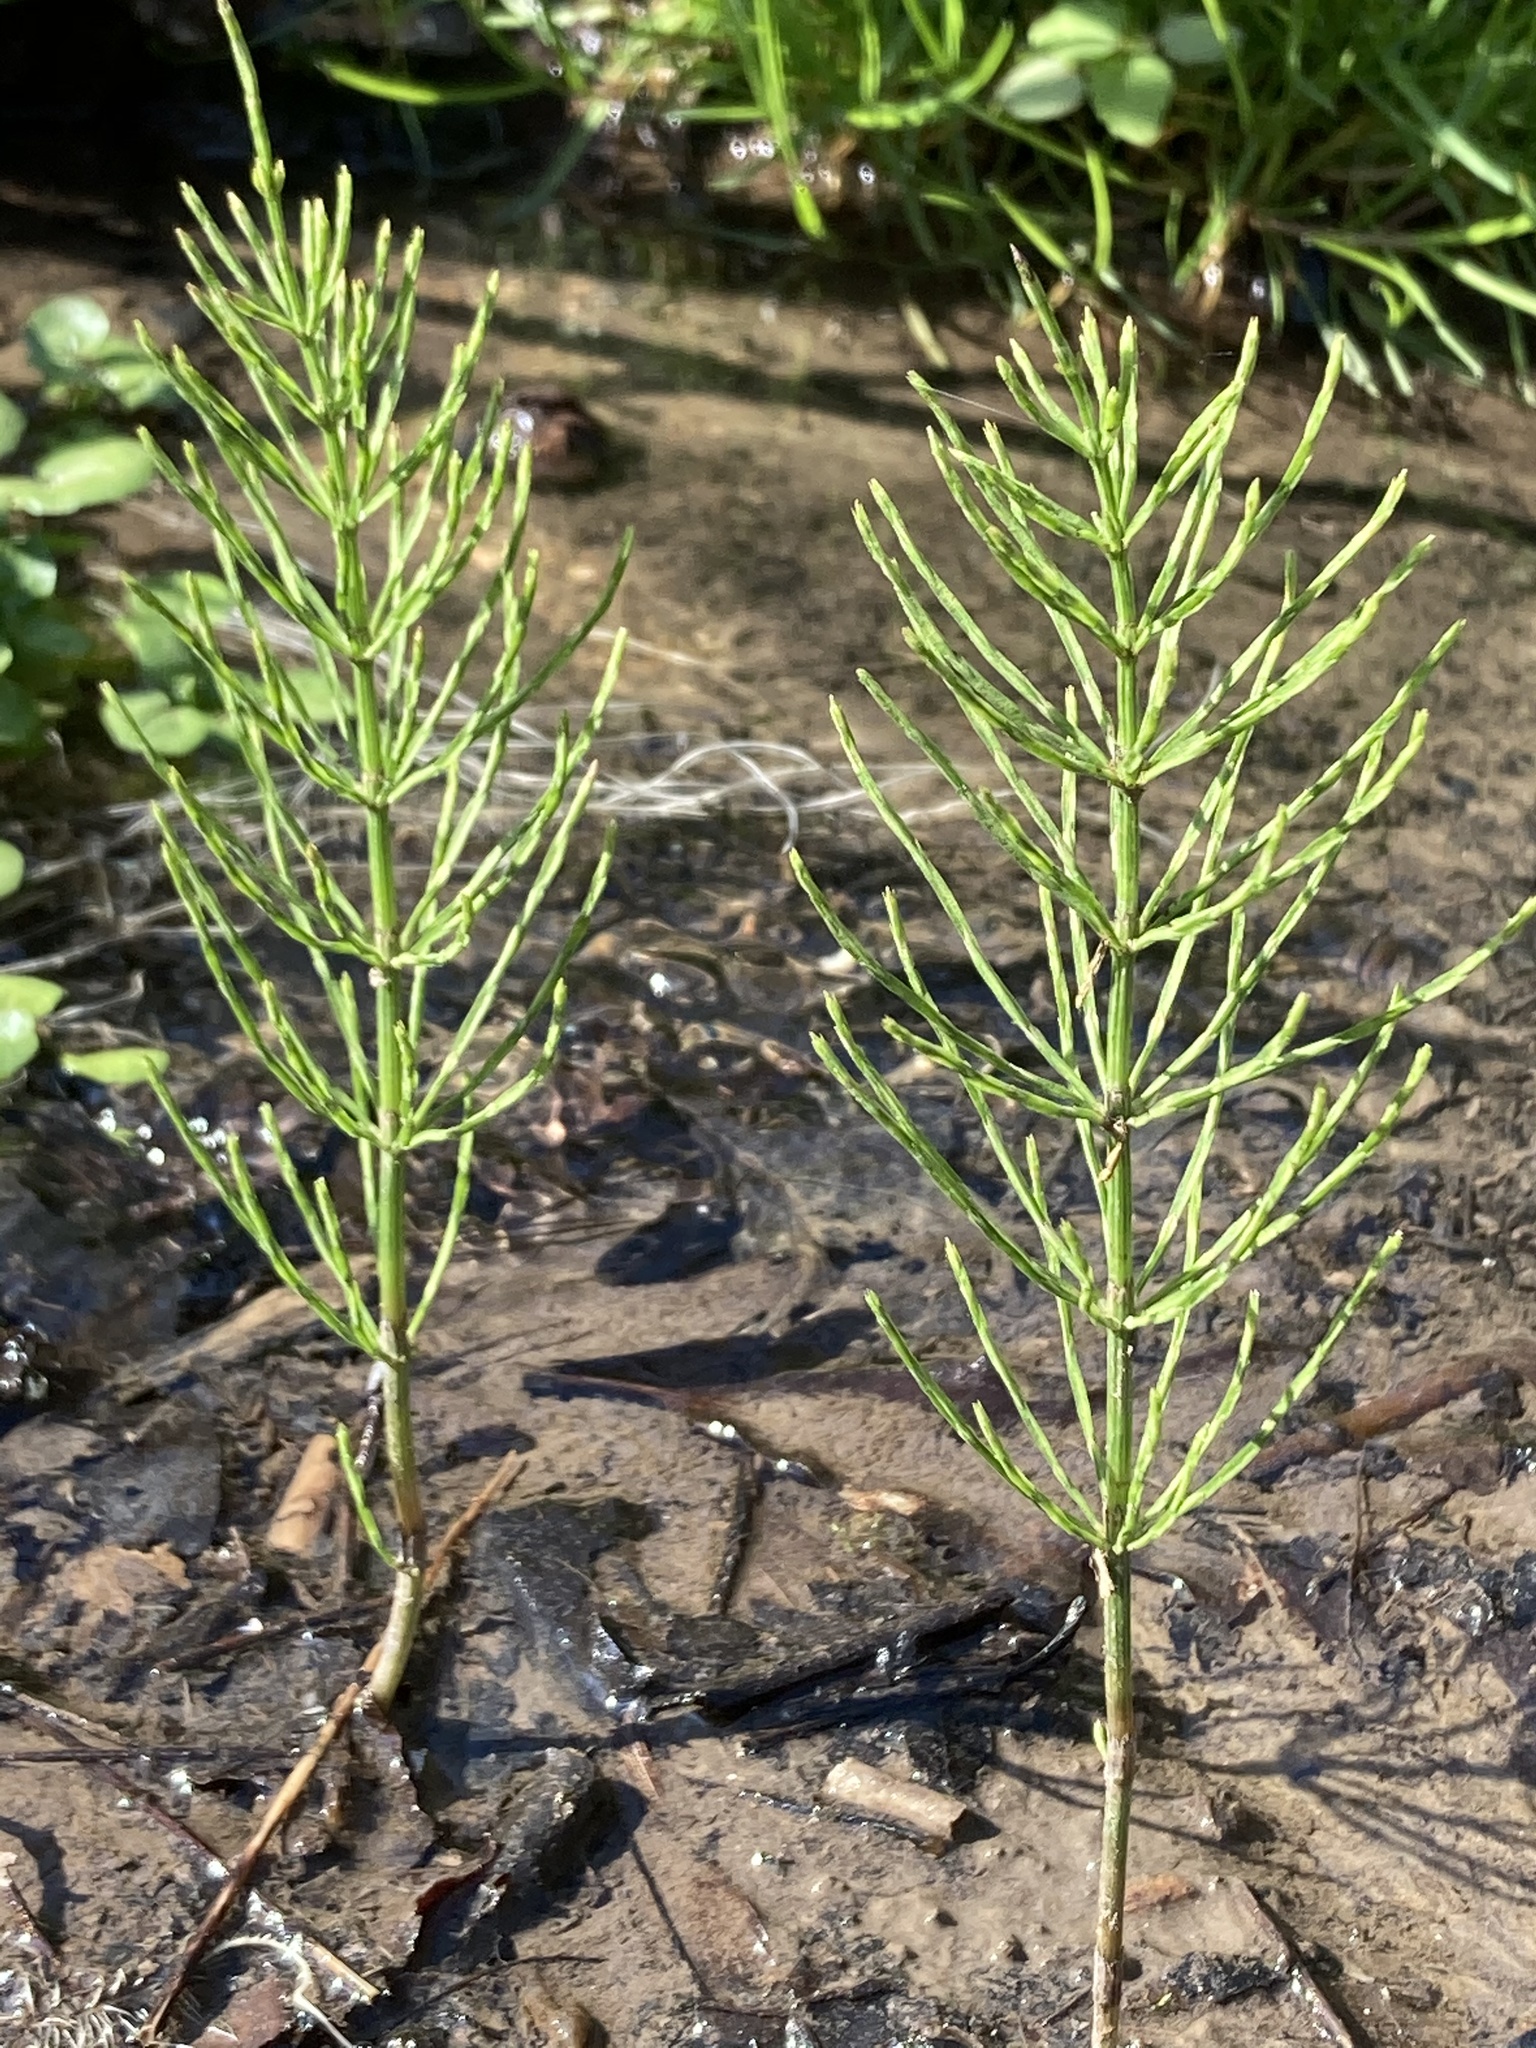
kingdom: Plantae
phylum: Tracheophyta
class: Polypodiopsida
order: Equisetales
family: Equisetaceae
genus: Equisetum
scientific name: Equisetum arvense
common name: Field horsetail
